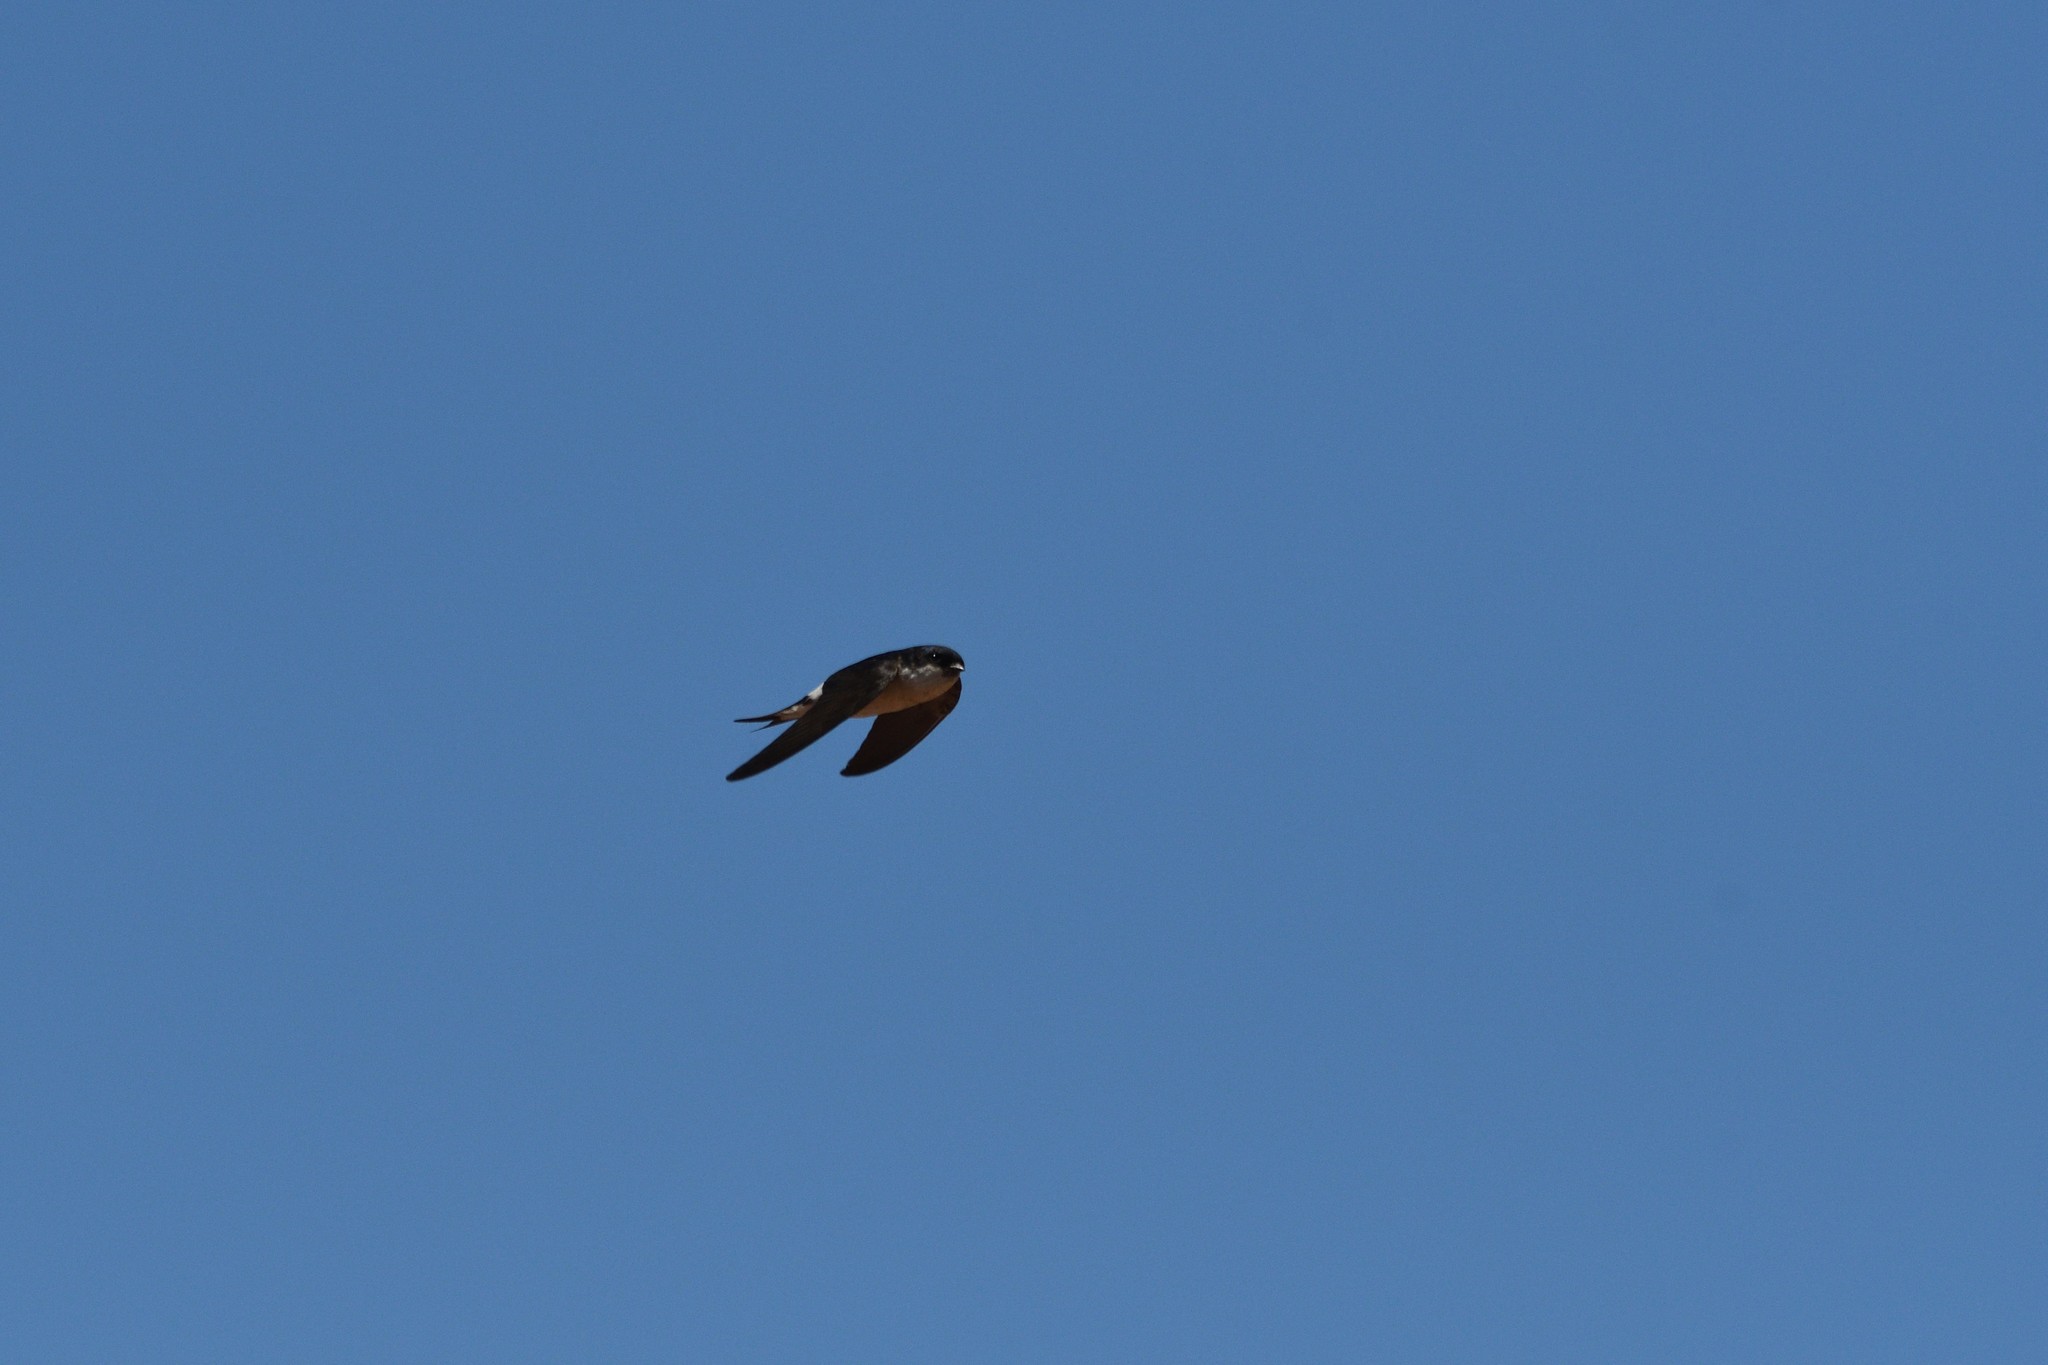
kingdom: Animalia
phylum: Chordata
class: Aves
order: Passeriformes
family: Hirundinidae
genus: Delichon
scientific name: Delichon urbicum
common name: Common house martin
